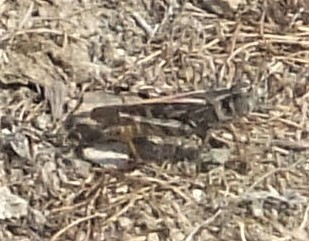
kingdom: Animalia
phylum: Arthropoda
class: Insecta
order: Orthoptera
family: Acrididae
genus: Camnula
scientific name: Camnula pellucida
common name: Clear-winged grasshopper
